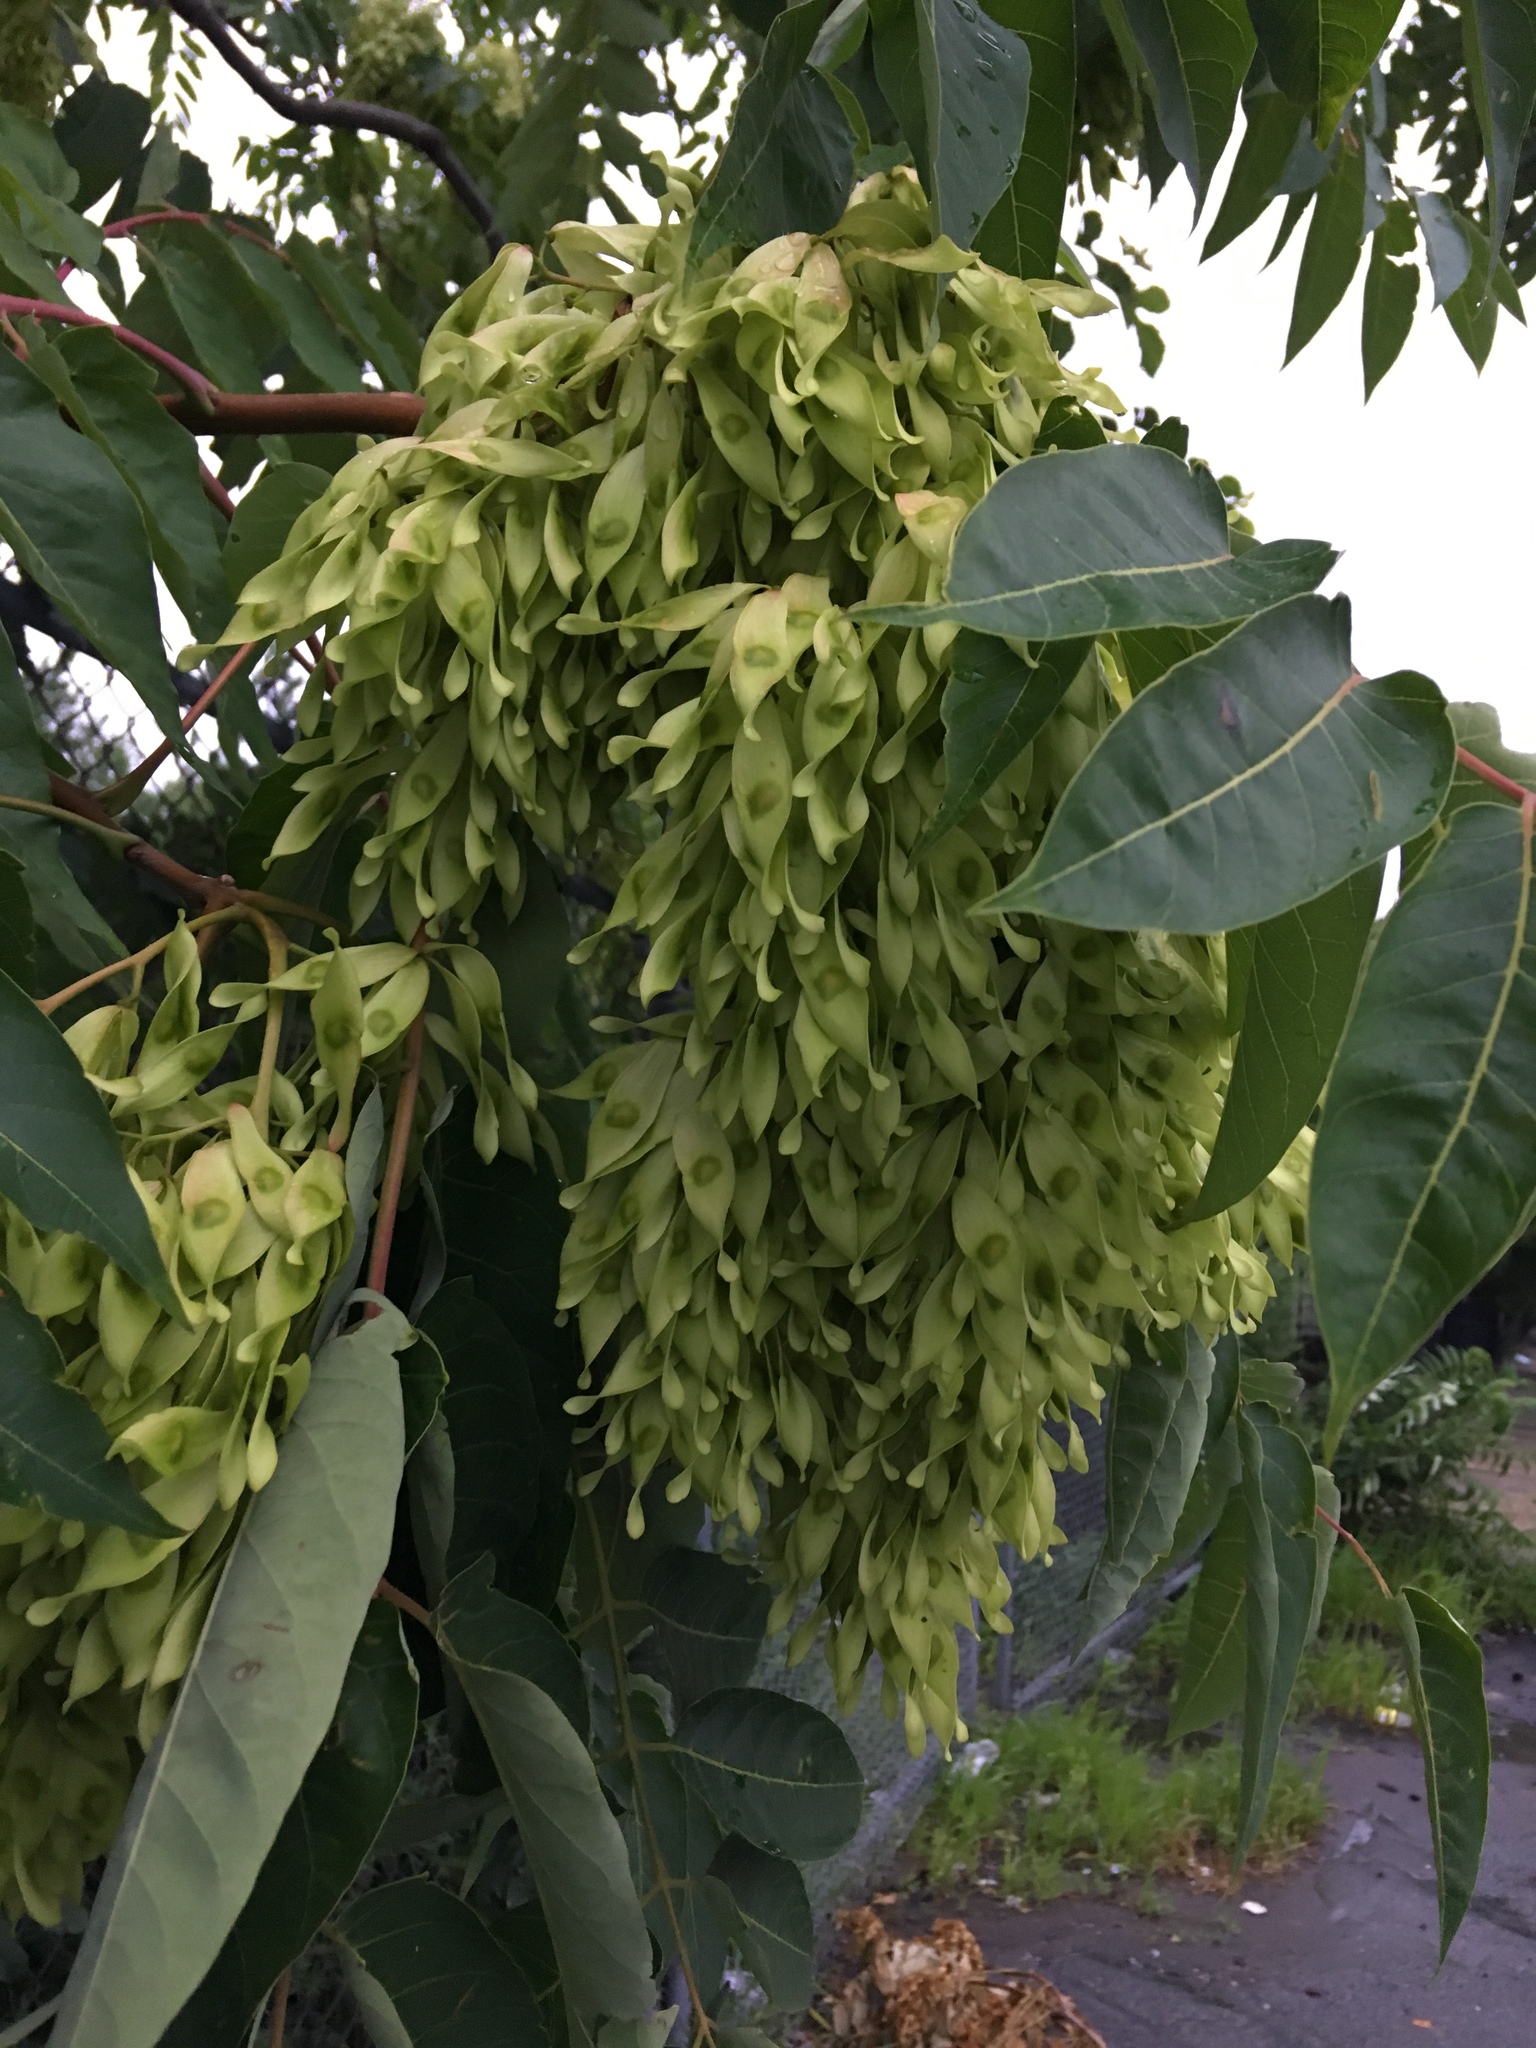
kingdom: Plantae
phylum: Tracheophyta
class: Magnoliopsida
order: Sapindales
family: Simaroubaceae
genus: Ailanthus
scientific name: Ailanthus altissima
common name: Tree-of-heaven
